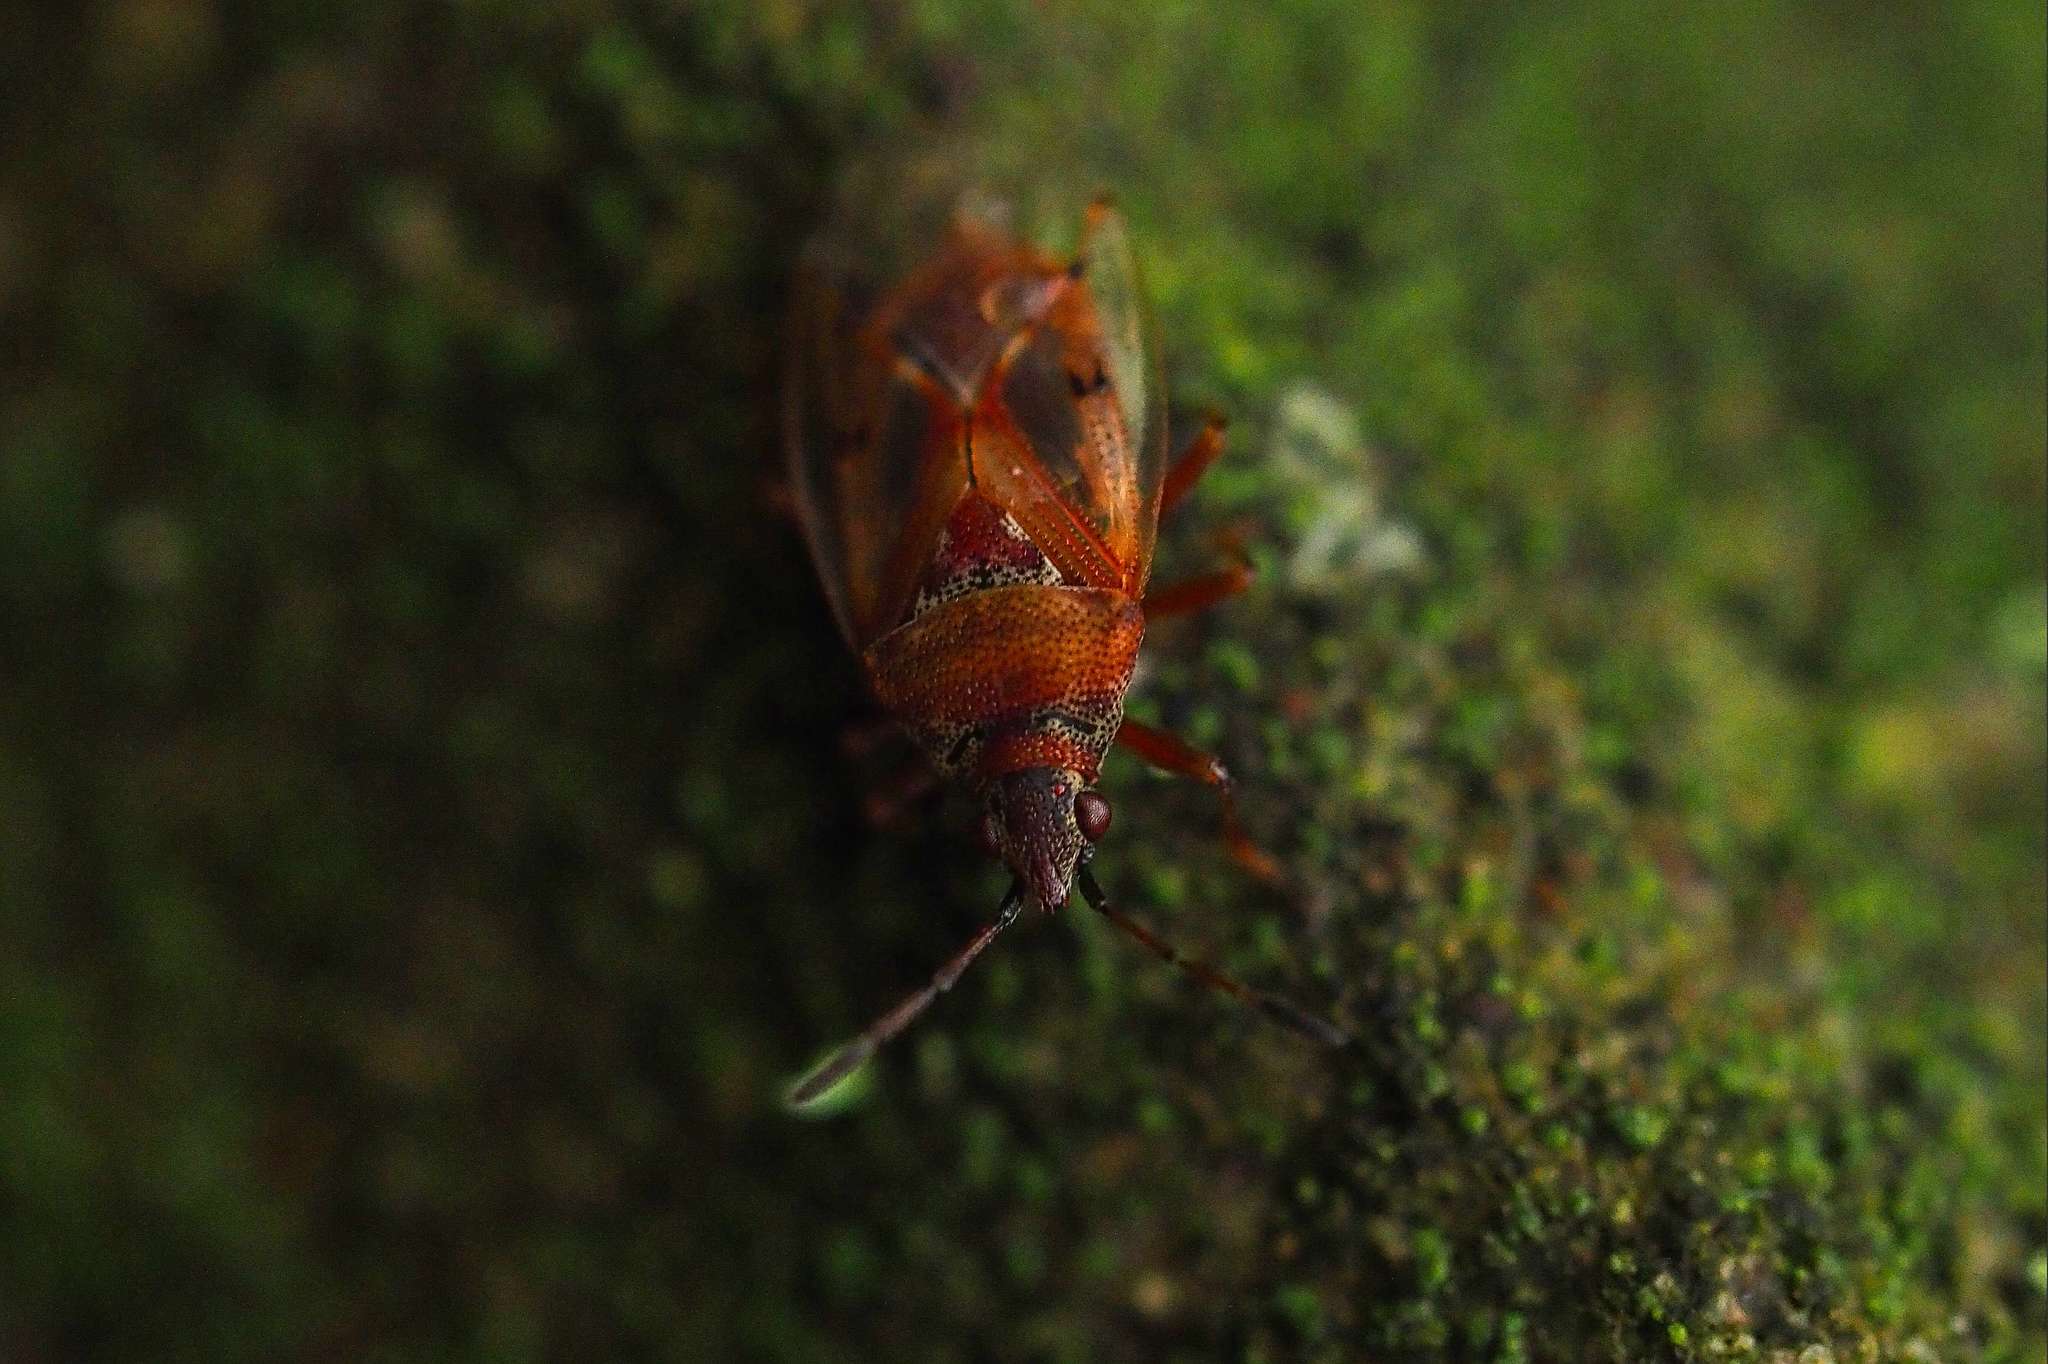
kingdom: Animalia
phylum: Arthropoda
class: Insecta
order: Hemiptera
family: Lygaeidae
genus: Kleidocerys
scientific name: Kleidocerys resedae
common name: Birch catkin bug
